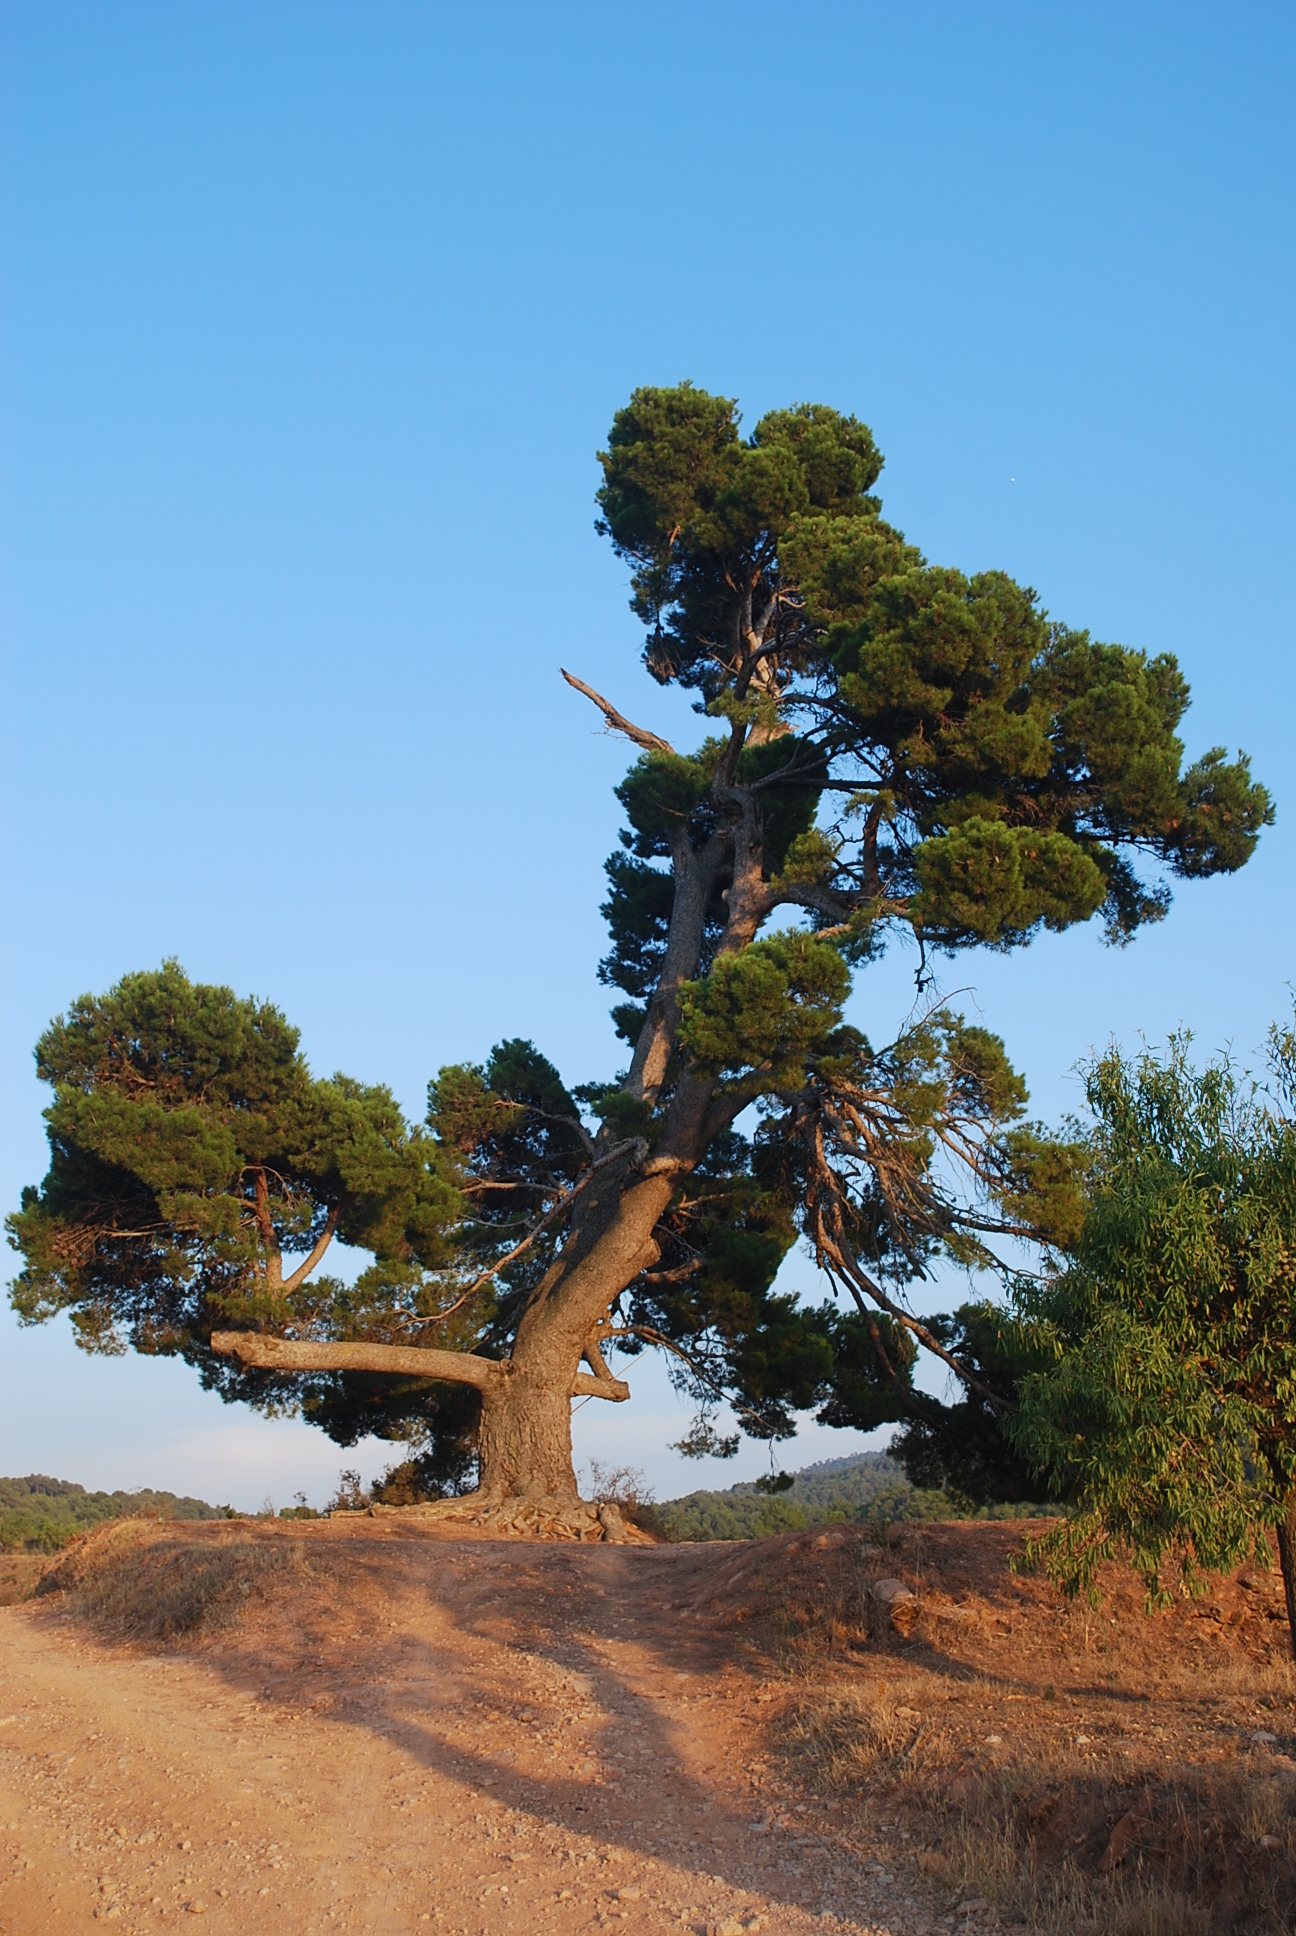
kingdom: Plantae
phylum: Tracheophyta
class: Pinopsida
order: Pinales
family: Pinaceae
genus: Pinus
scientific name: Pinus halepensis
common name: Aleppo pine
